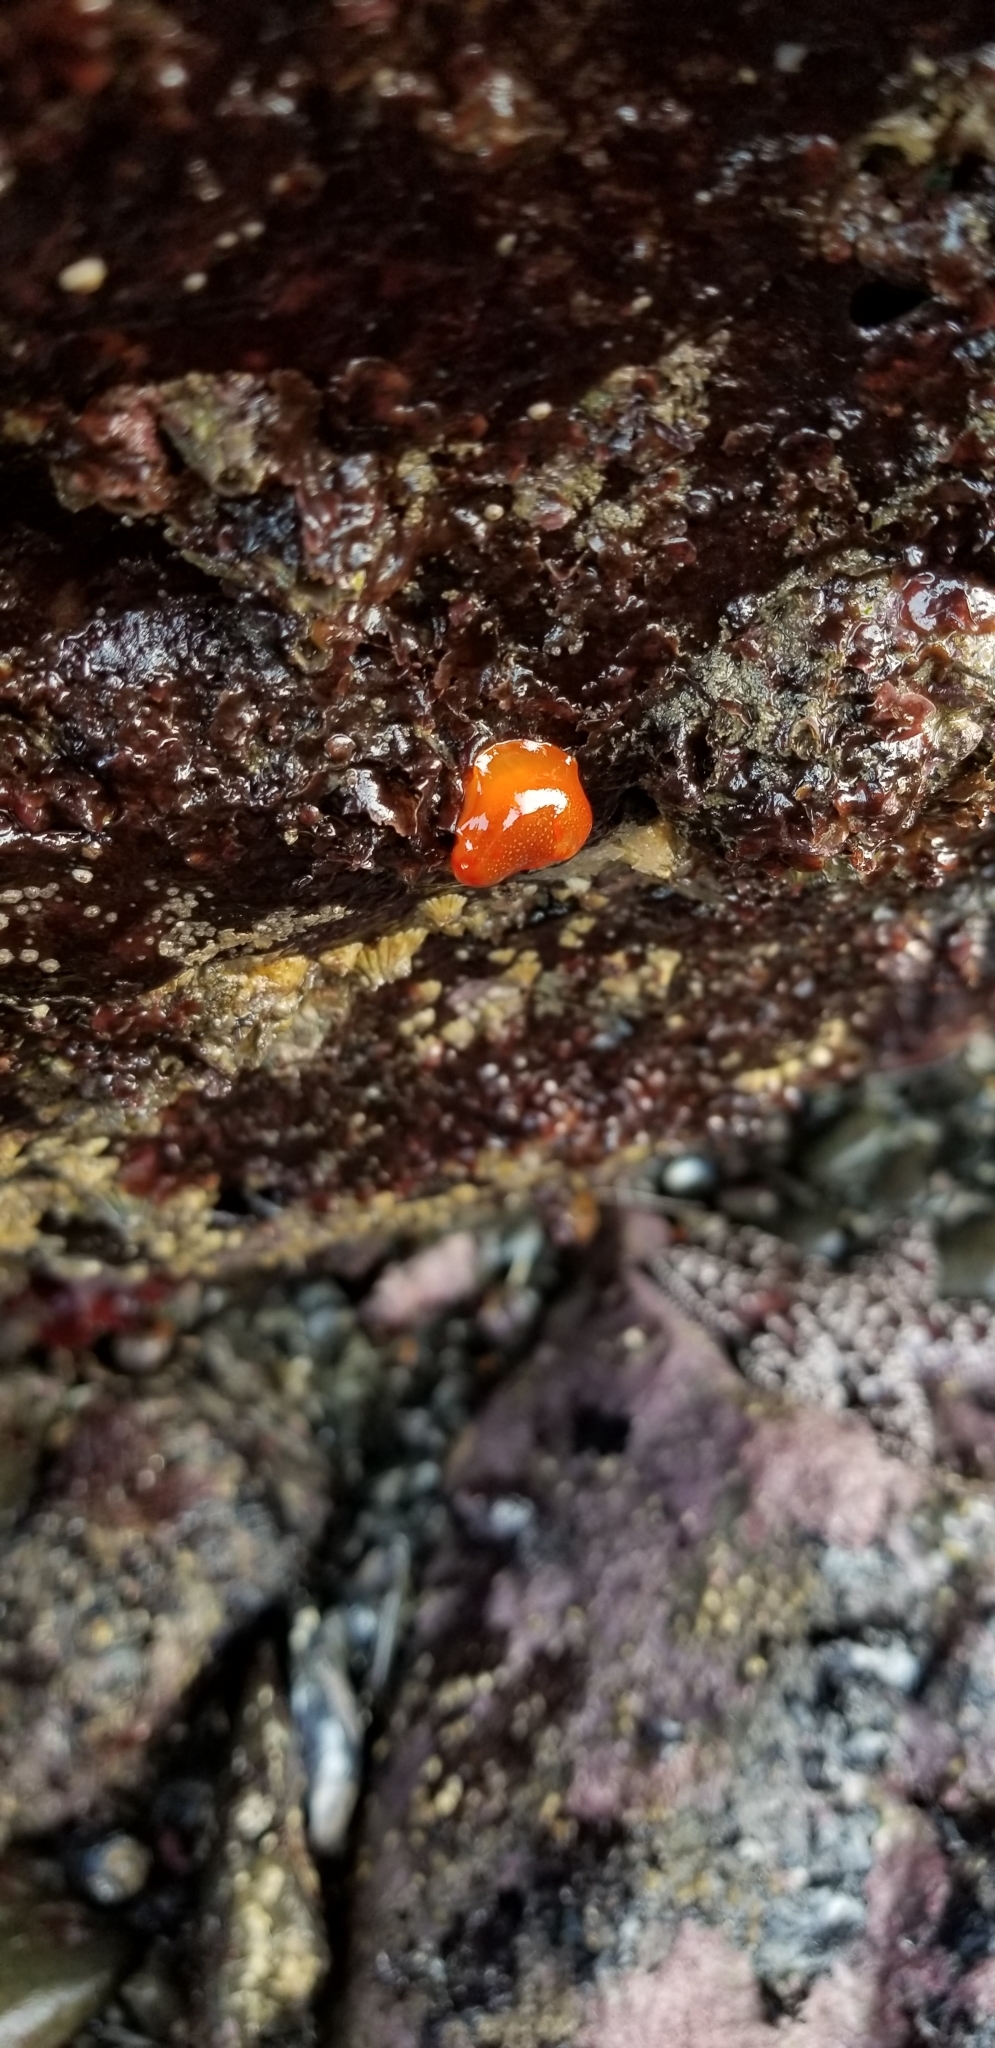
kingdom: Animalia
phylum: Mollusca
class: Gastropoda
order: Nudibranchia
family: Polyceridae
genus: Triopha
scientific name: Triopha maculata
